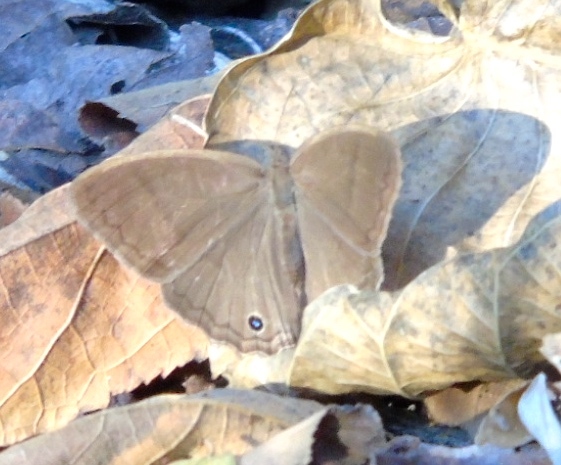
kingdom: Animalia
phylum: Arthropoda
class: Insecta
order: Lepidoptera
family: Nymphalidae
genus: Vareuptychia
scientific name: Vareuptychia similis
